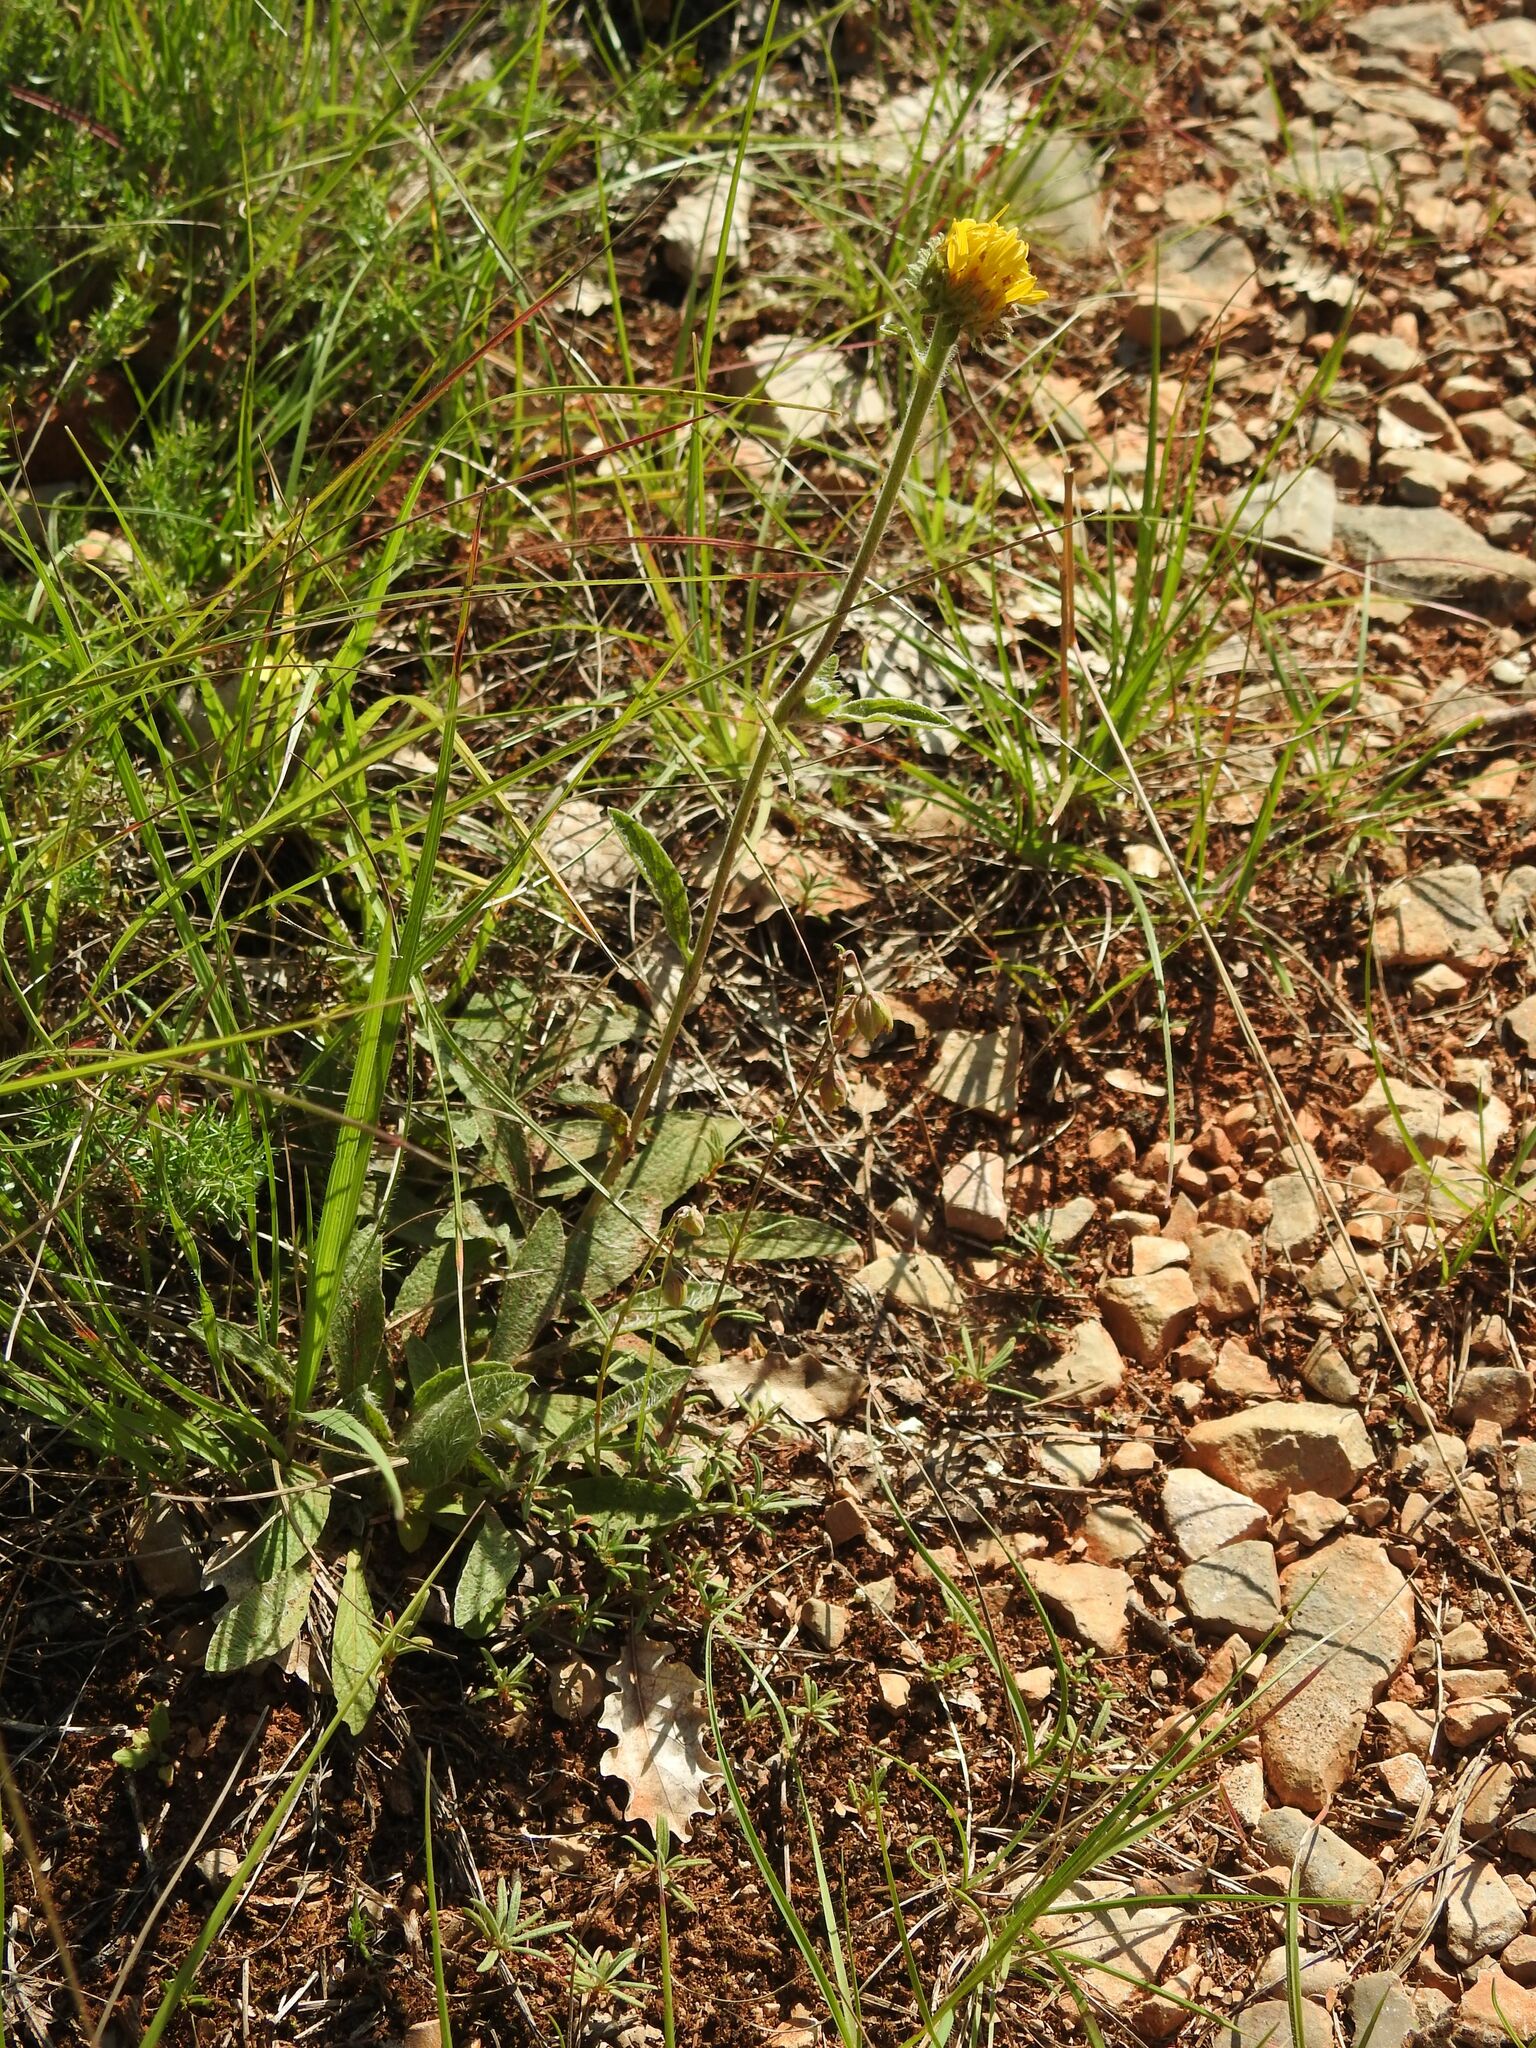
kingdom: Plantae
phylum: Tracheophyta
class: Magnoliopsida
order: Asterales
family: Asteraceae
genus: Pentanema
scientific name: Pentanema montanum
